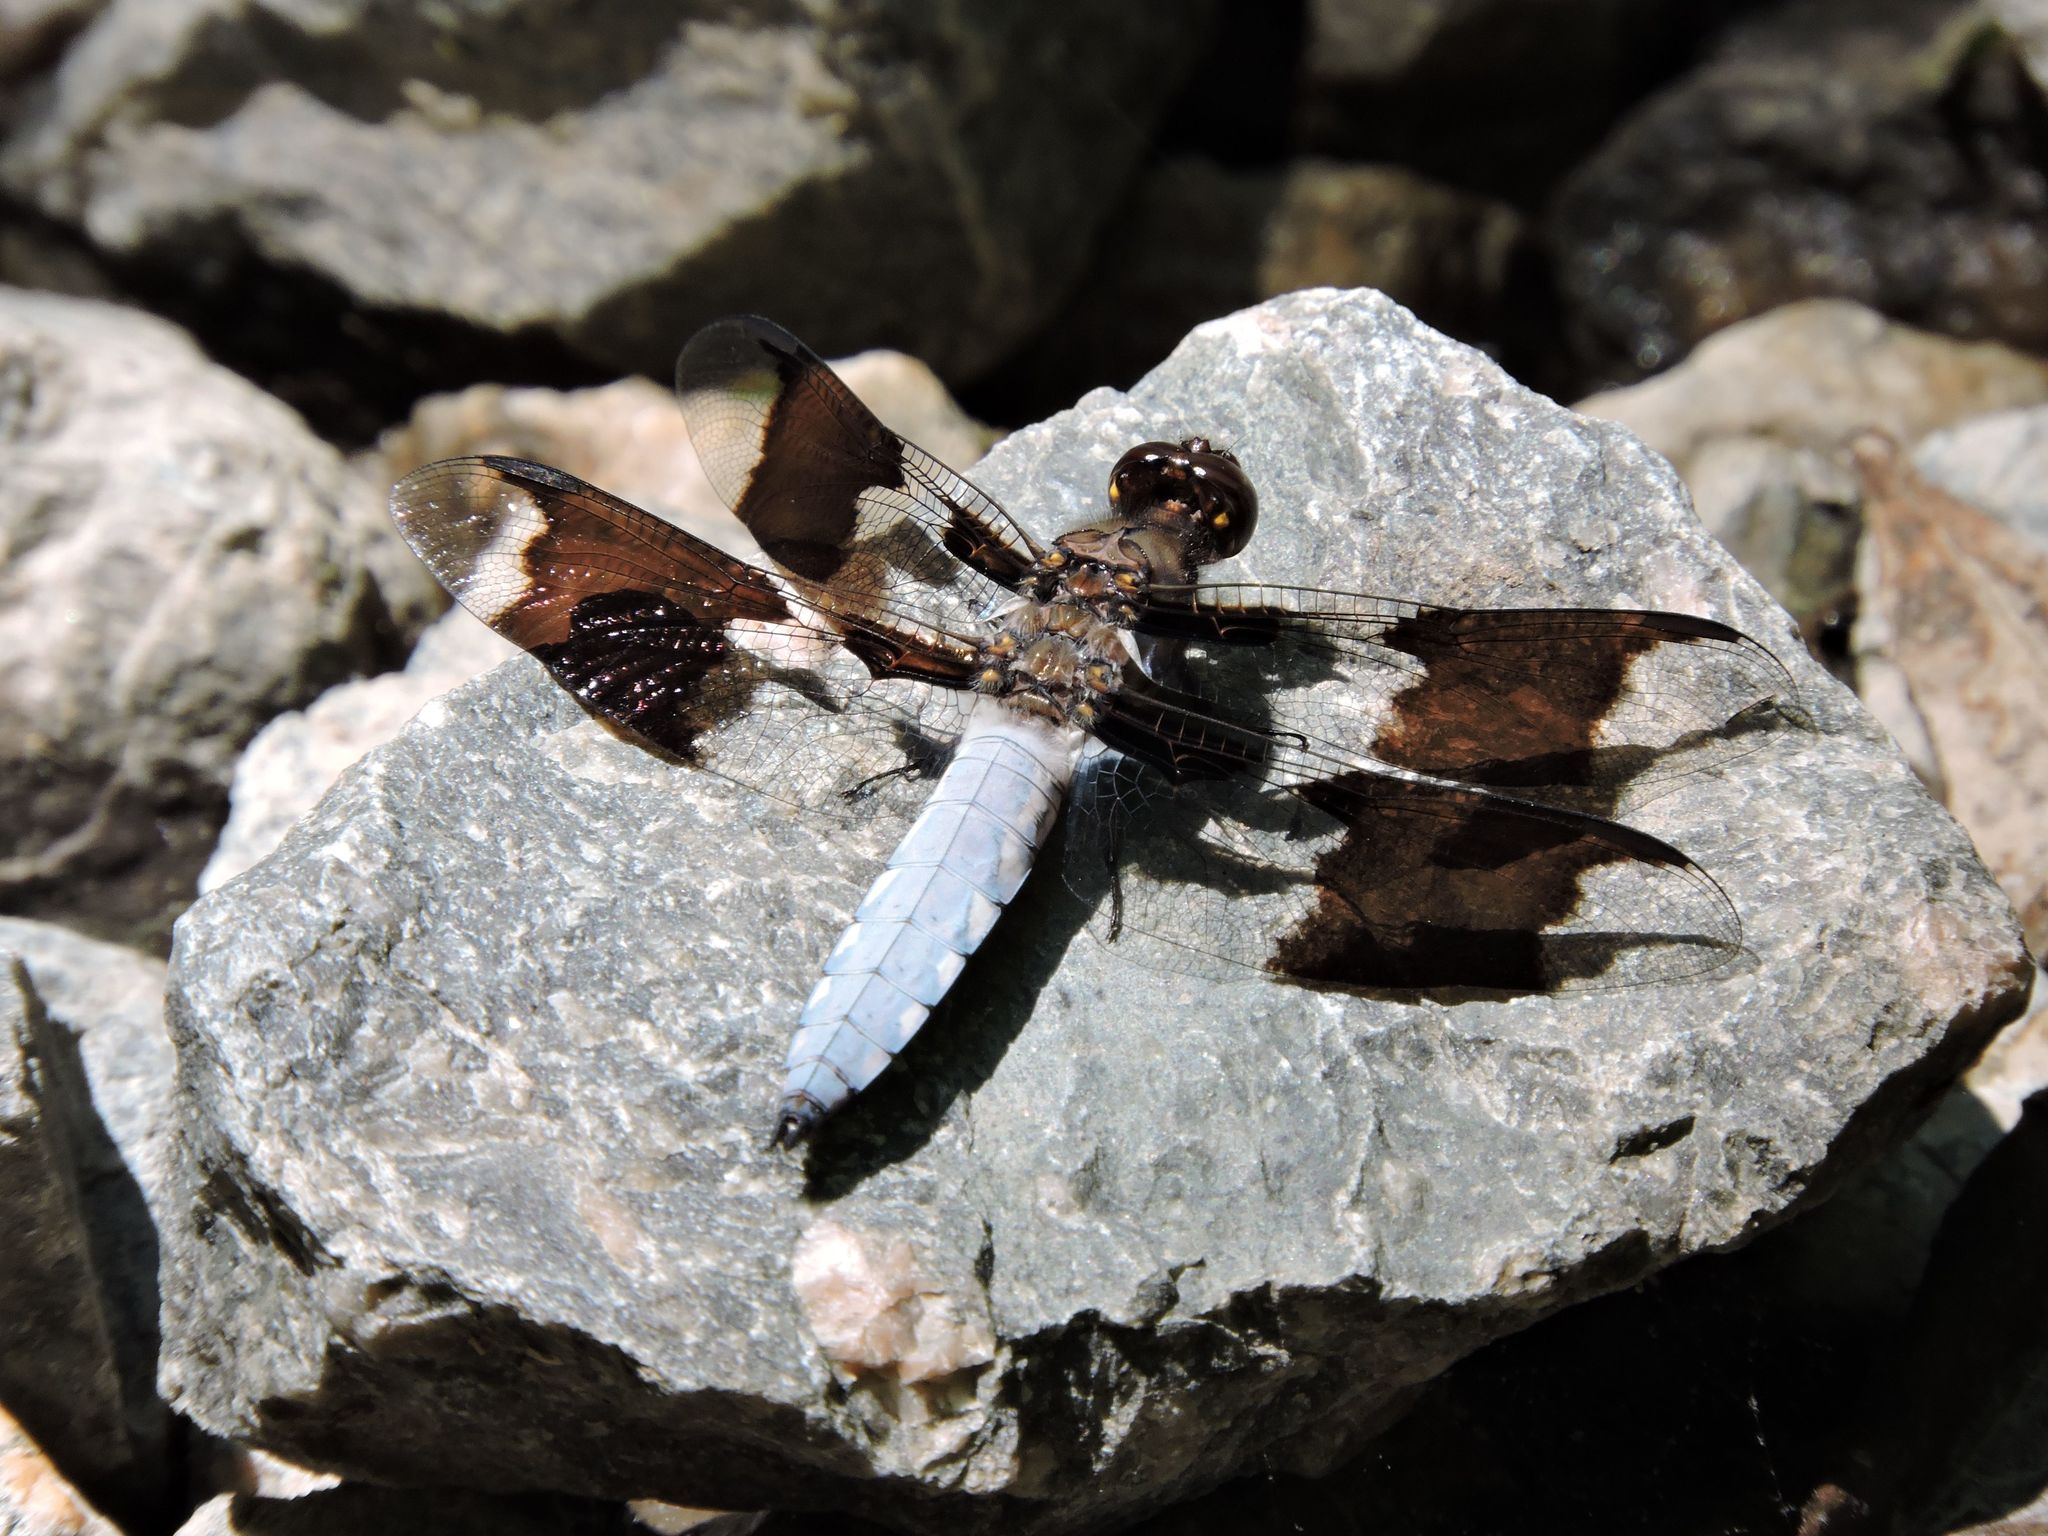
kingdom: Animalia
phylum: Arthropoda
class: Insecta
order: Odonata
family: Libellulidae
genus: Plathemis
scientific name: Plathemis lydia
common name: Common whitetail
